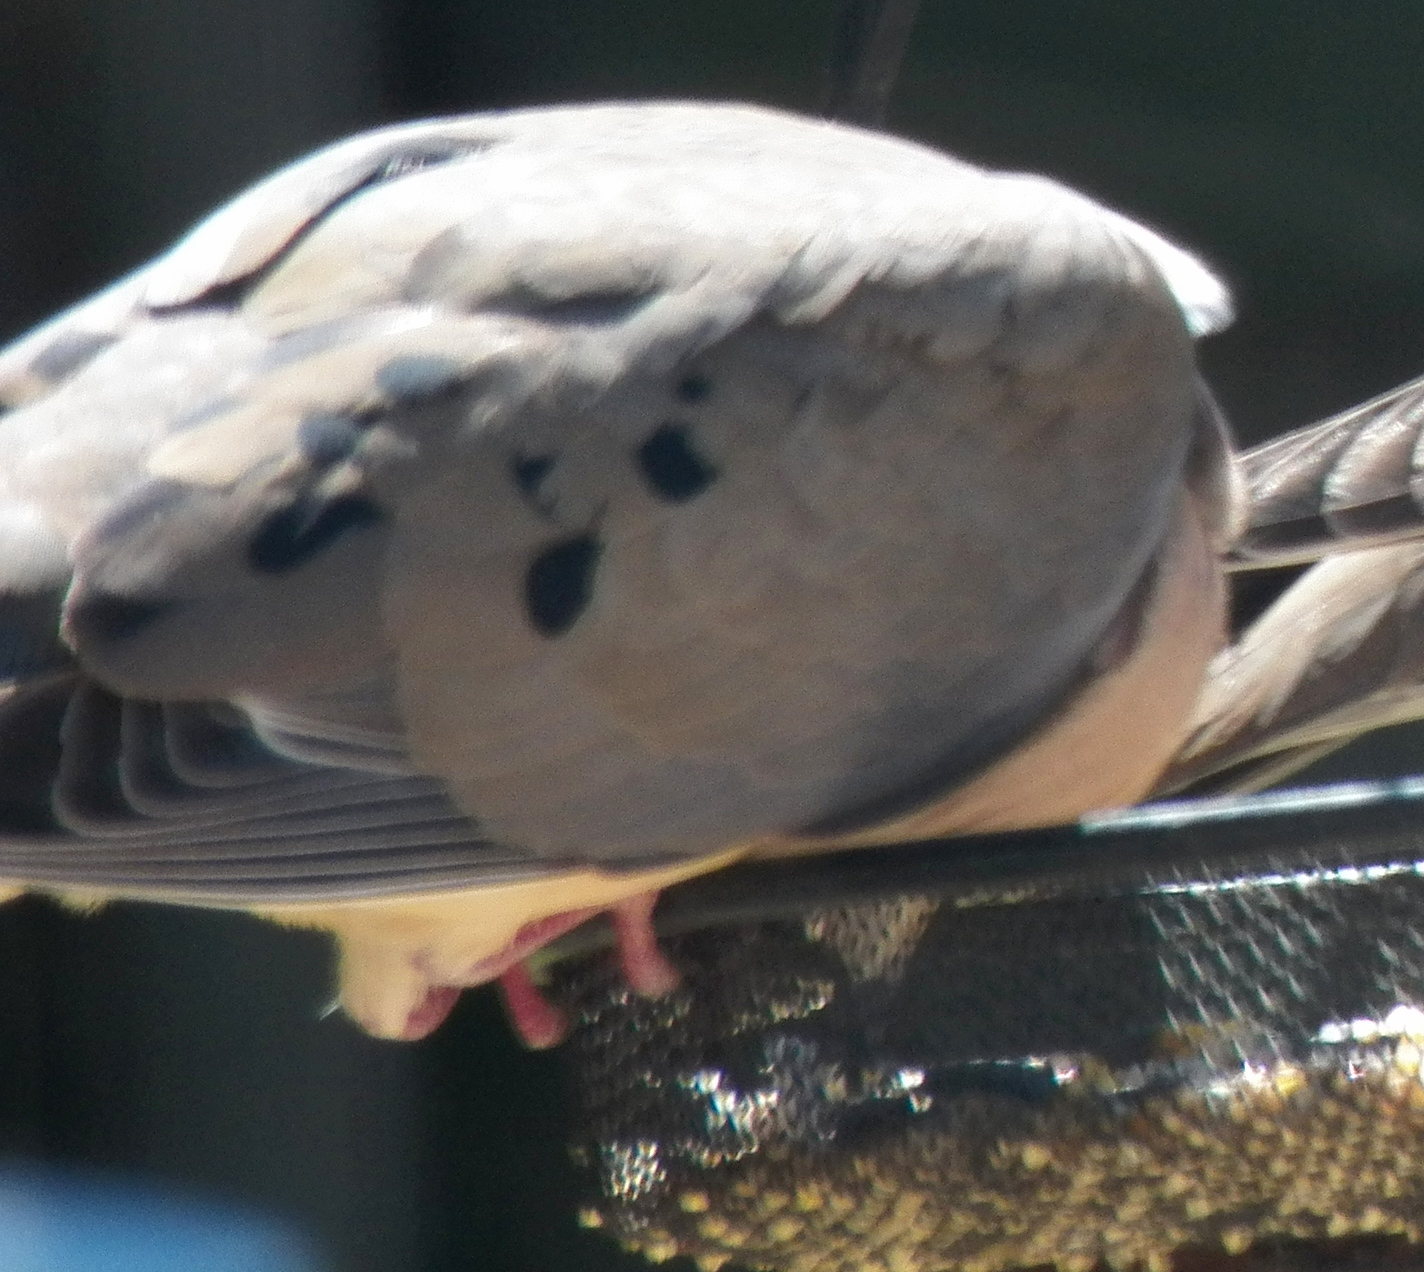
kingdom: Animalia
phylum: Chordata
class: Aves
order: Columbiformes
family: Columbidae
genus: Zenaida
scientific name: Zenaida macroura
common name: Mourning dove
